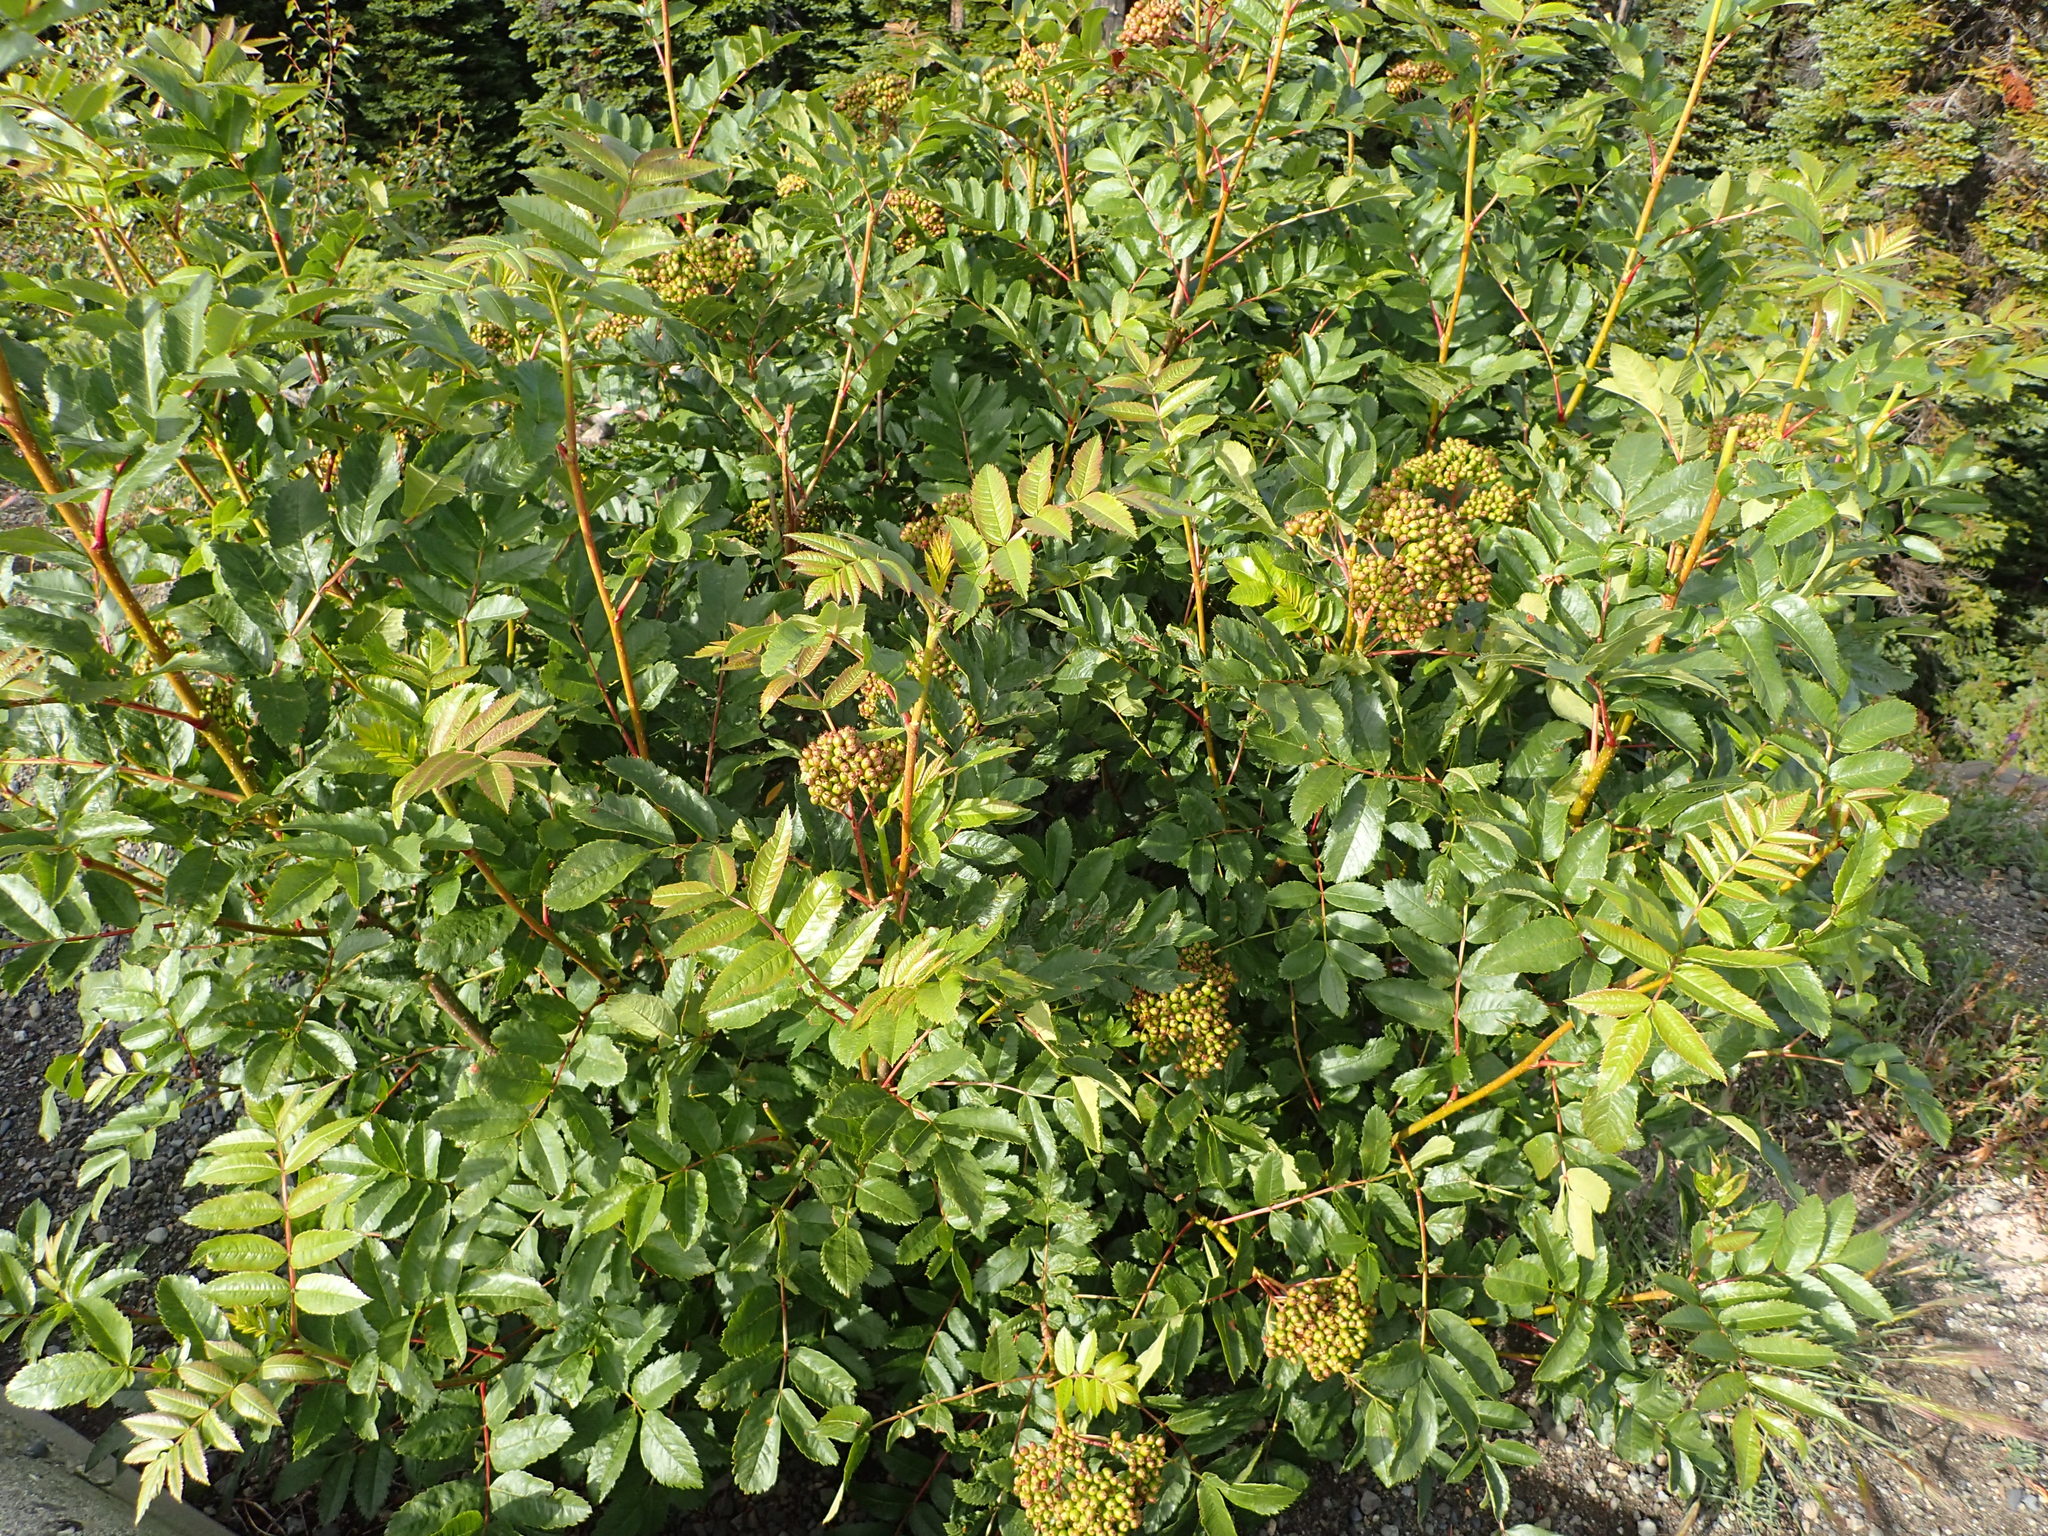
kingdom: Plantae
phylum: Tracheophyta
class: Magnoliopsida
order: Rosales
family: Rosaceae
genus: Sorbus
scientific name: Sorbus scopulina
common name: Greene's mountain-ash
